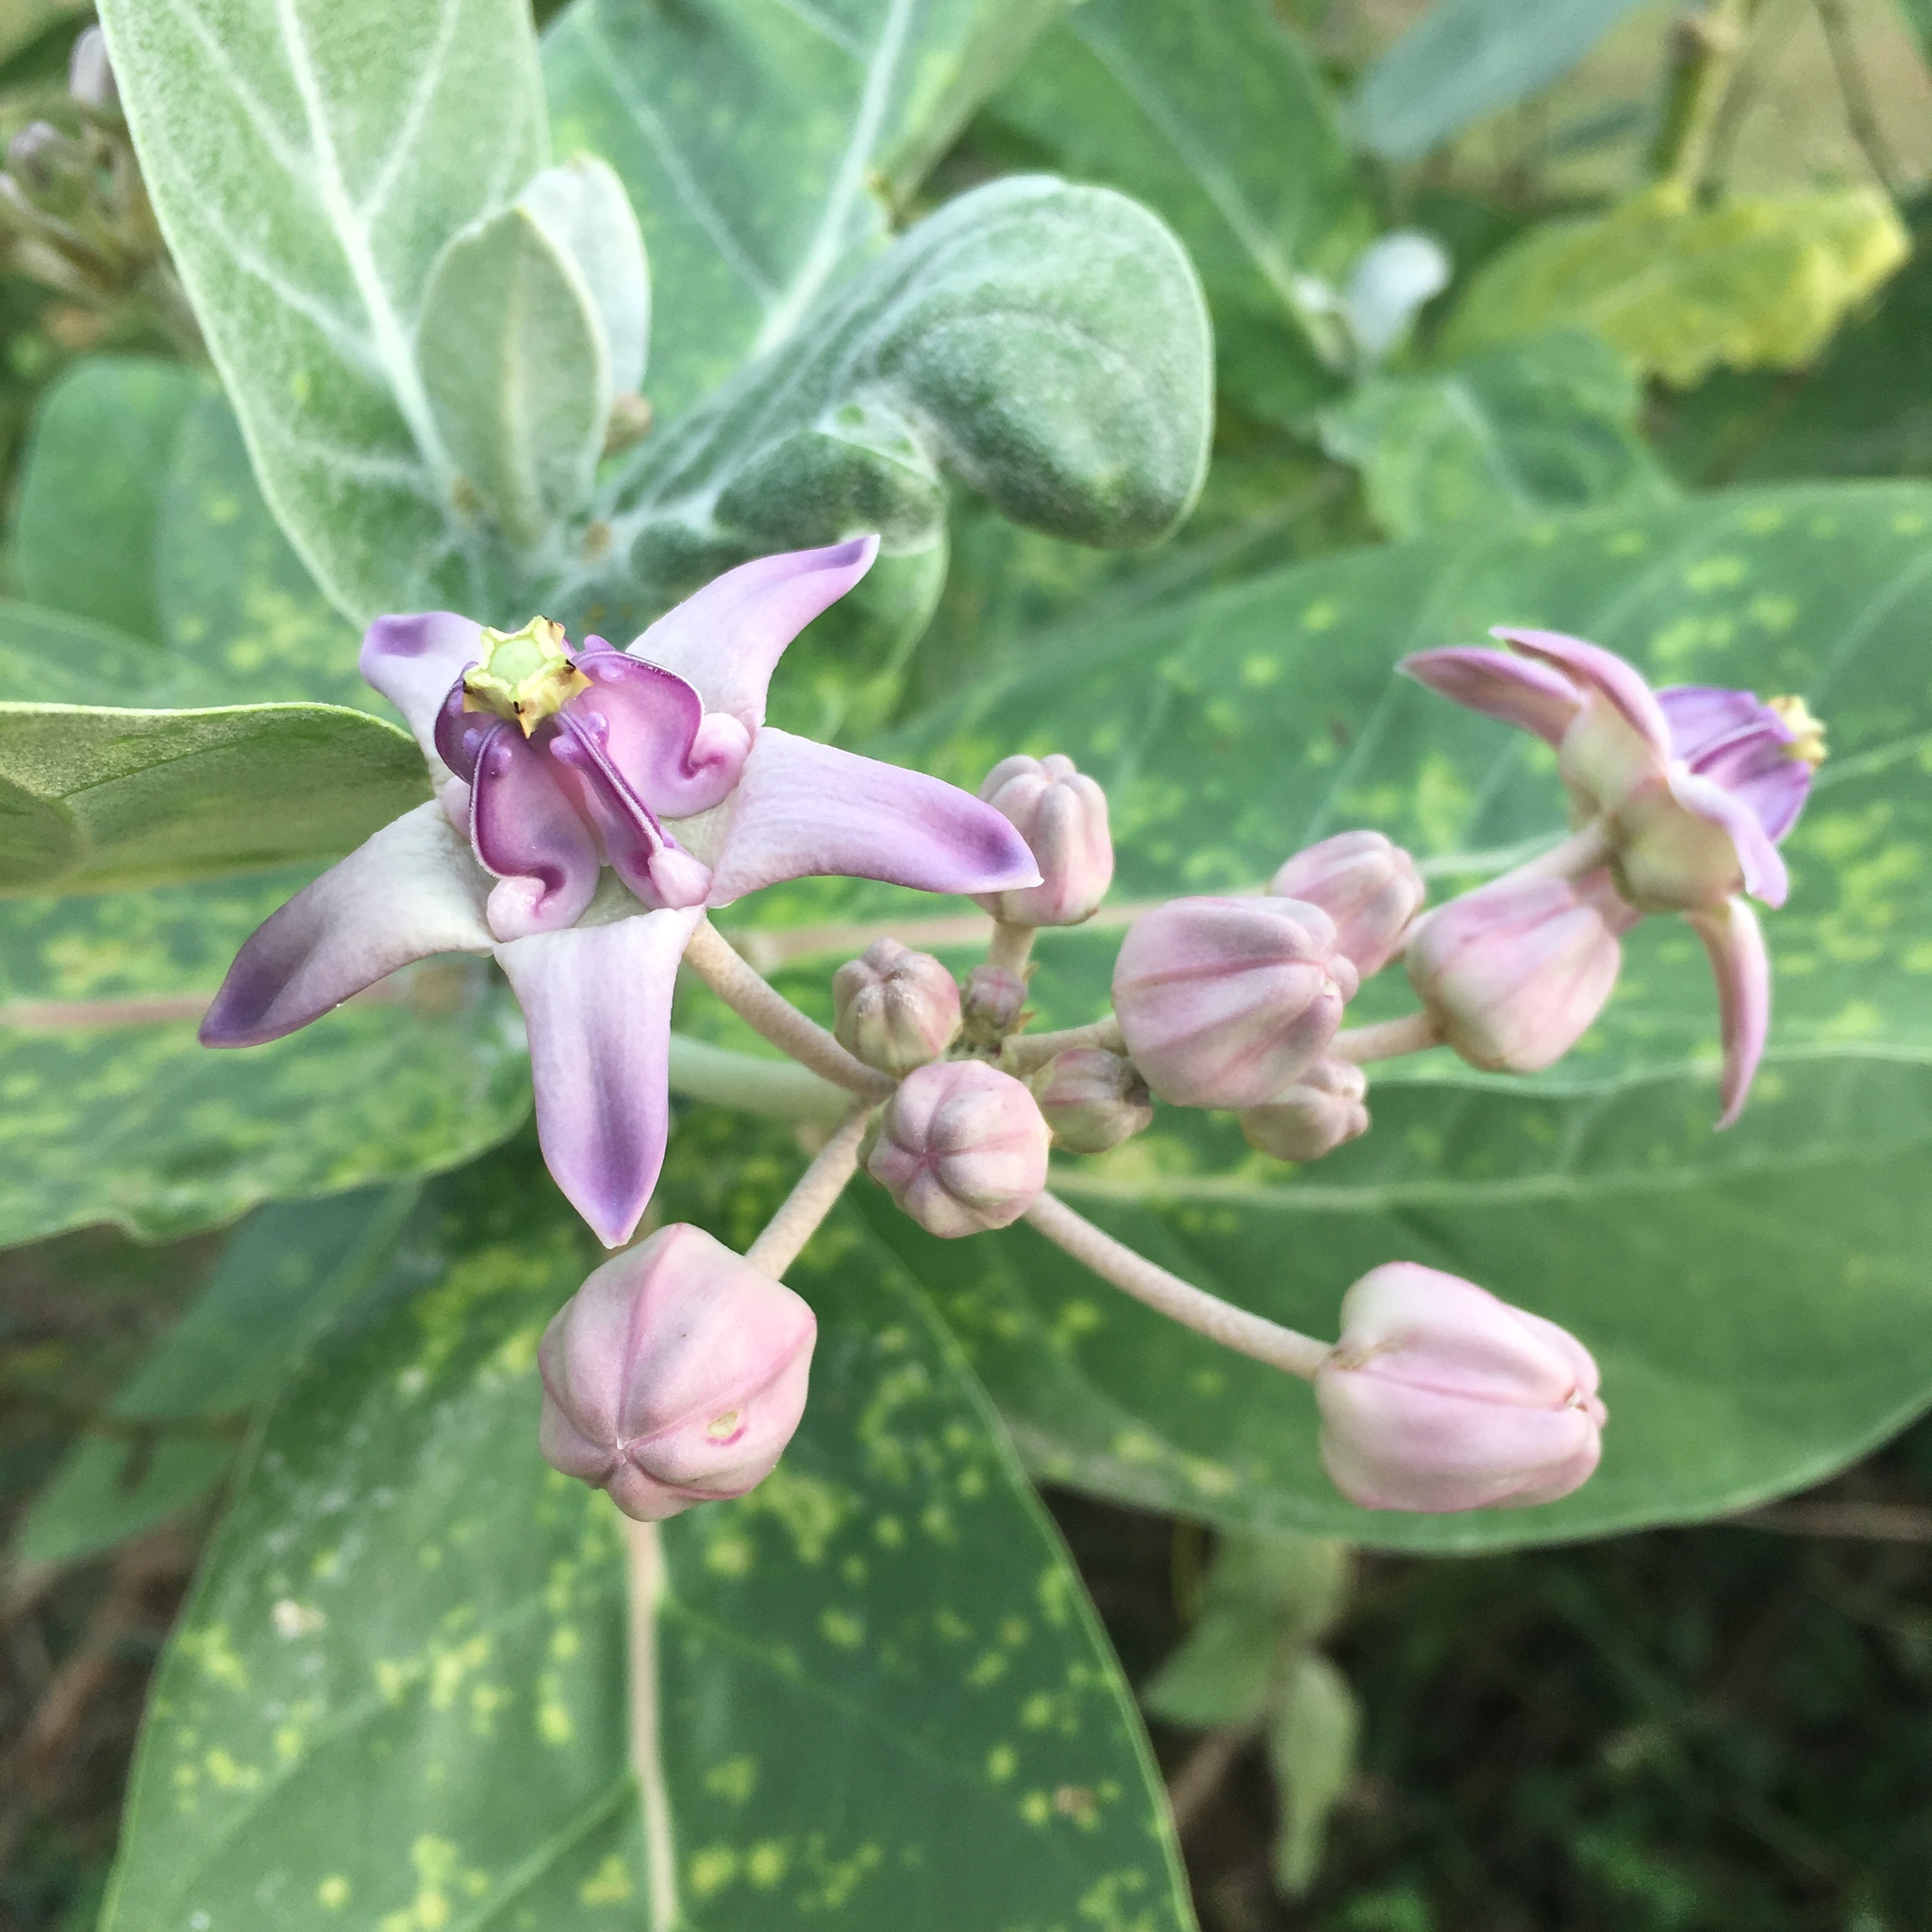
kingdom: Plantae
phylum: Tracheophyta
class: Magnoliopsida
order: Gentianales
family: Apocynaceae
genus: Calotropis
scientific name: Calotropis gigantea
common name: Crown flower
